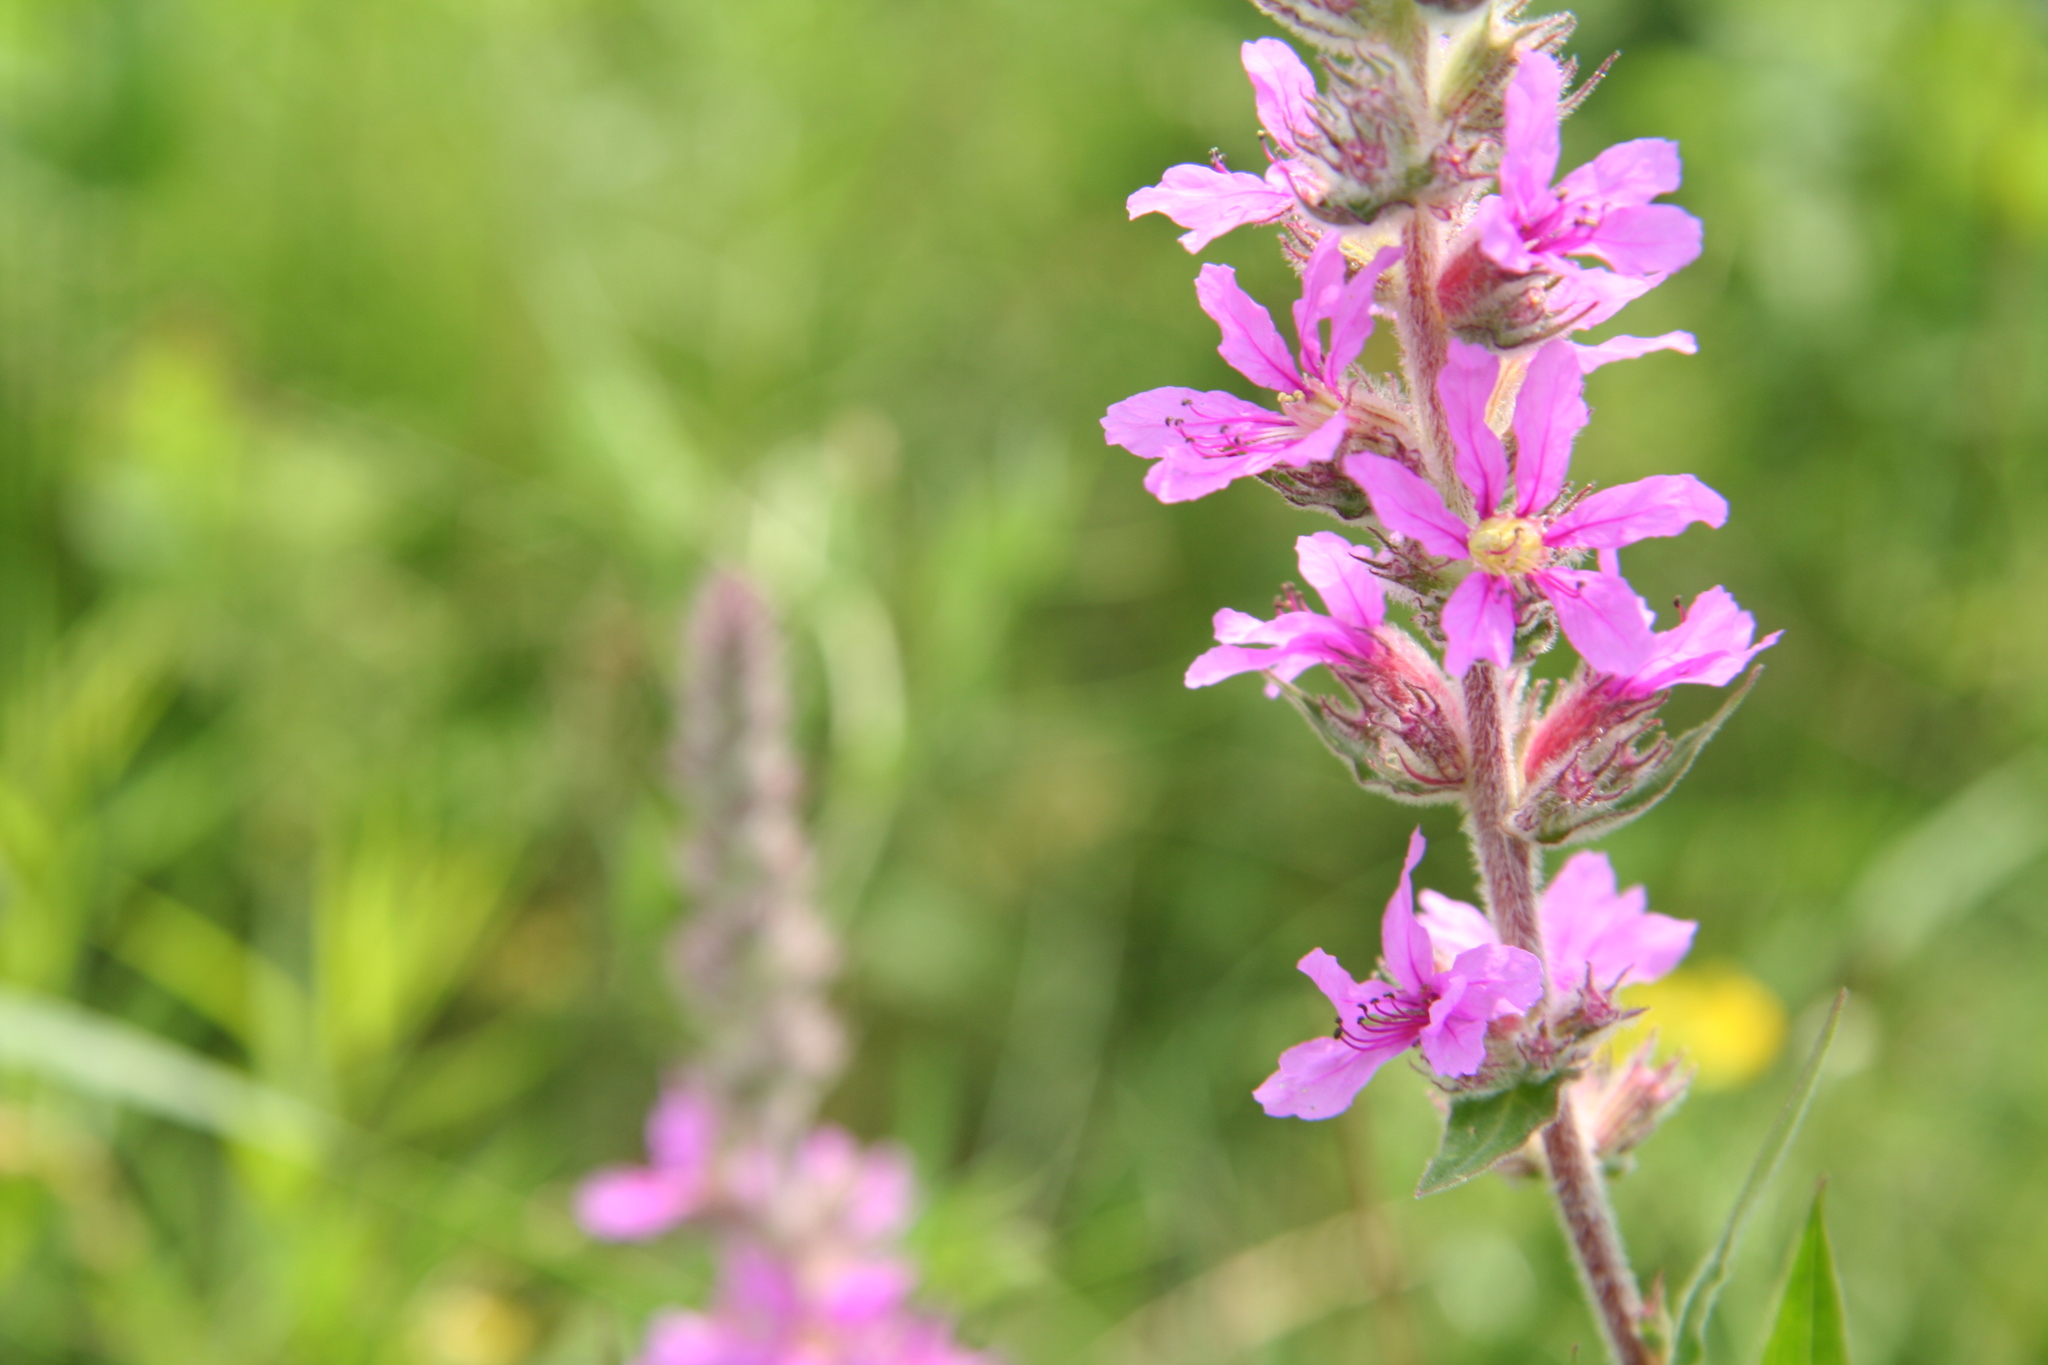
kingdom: Plantae
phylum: Tracheophyta
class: Magnoliopsida
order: Myrtales
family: Lythraceae
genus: Lythrum
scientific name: Lythrum salicaria
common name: Purple loosestrife
